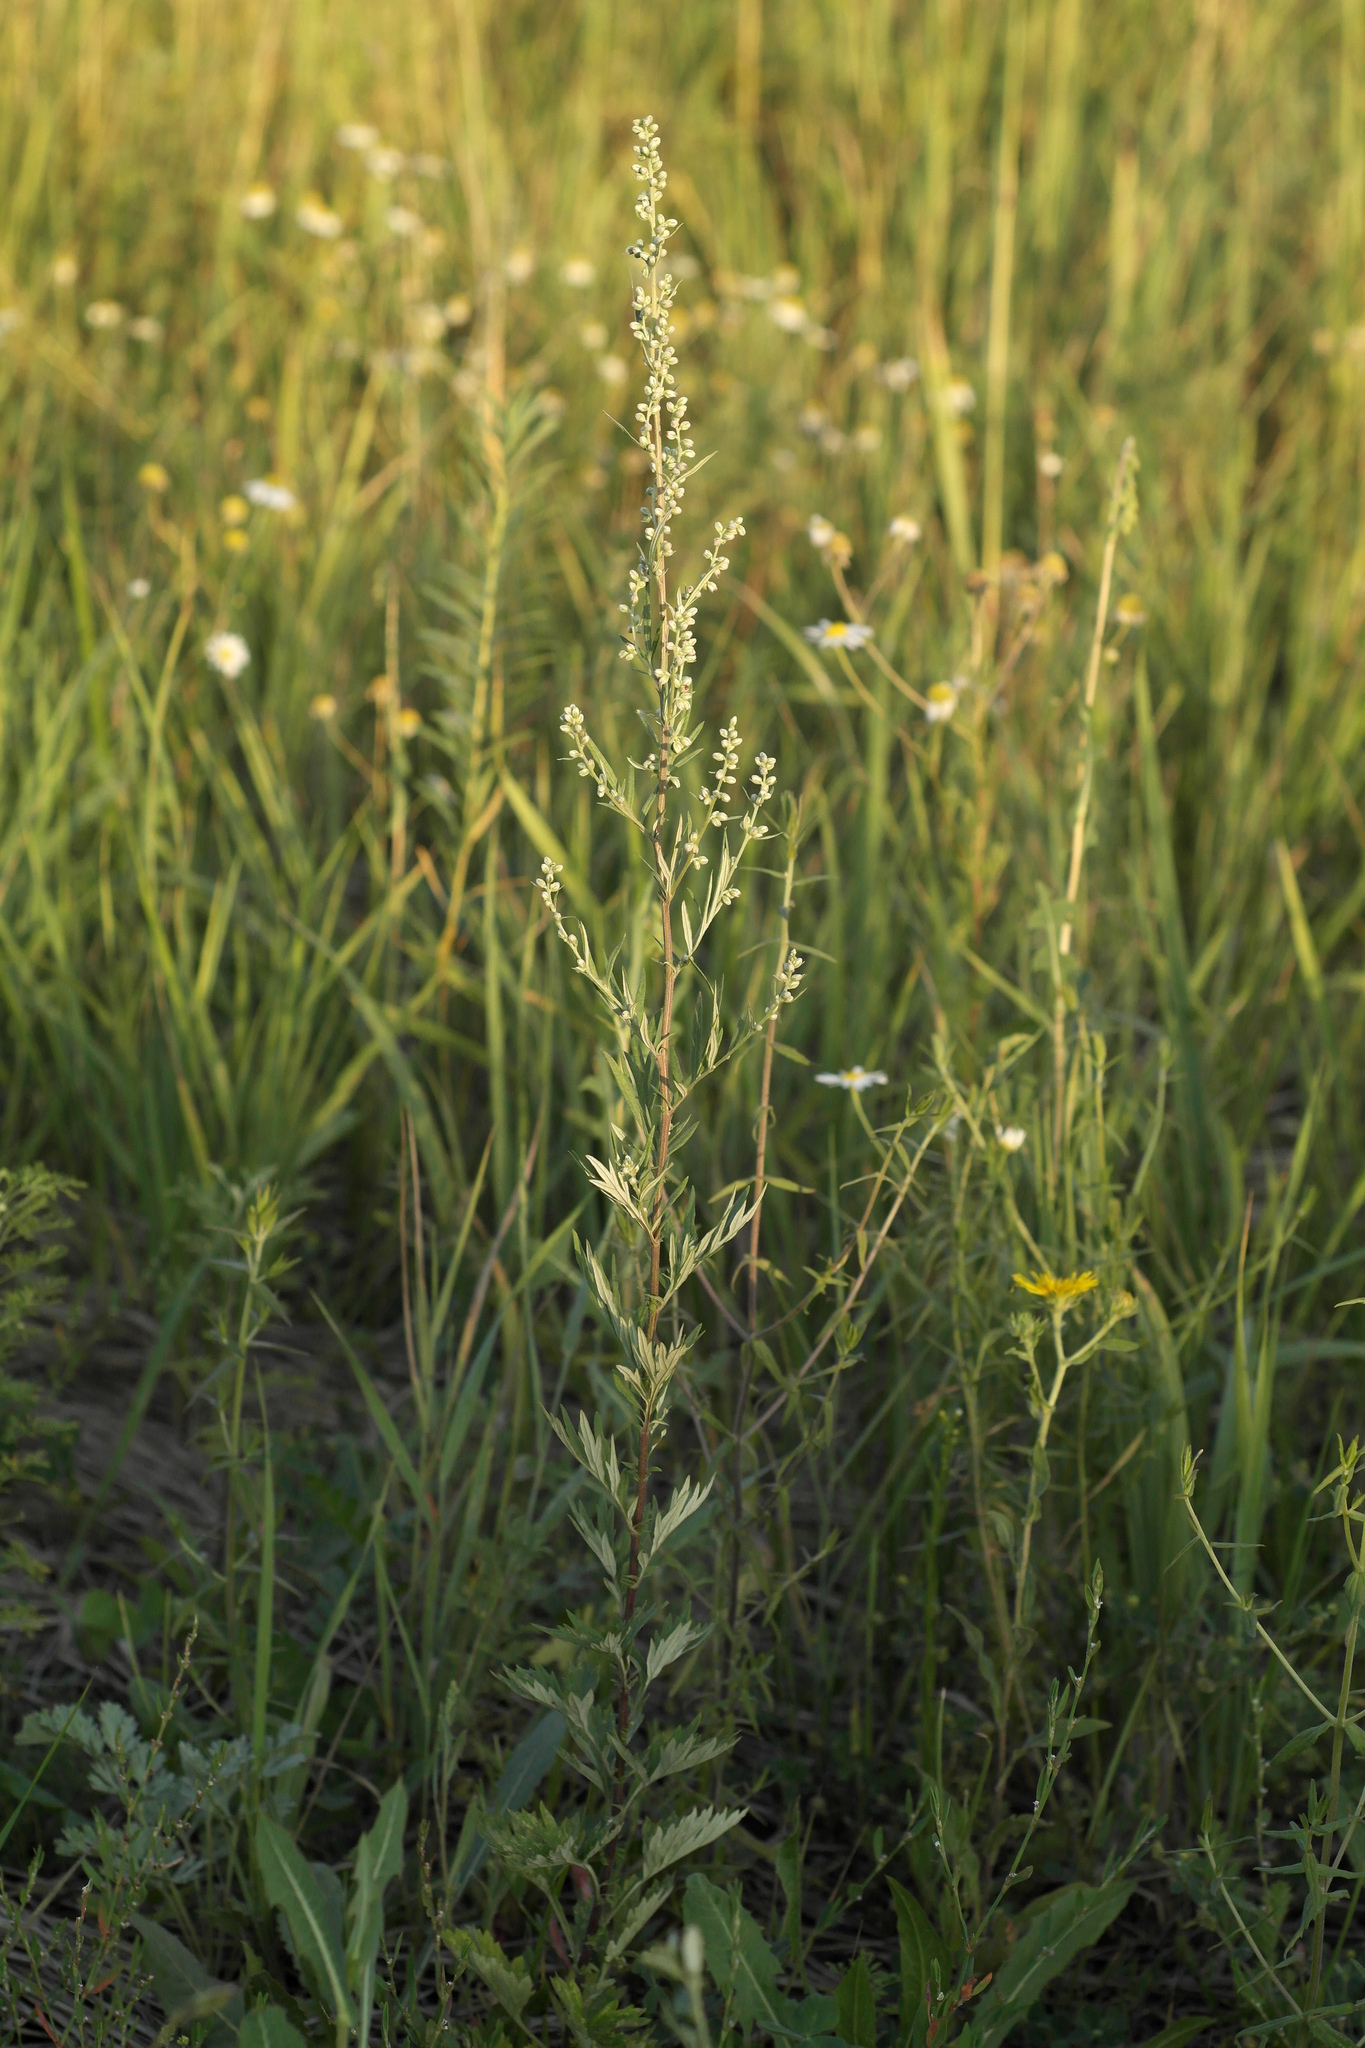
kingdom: Plantae
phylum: Tracheophyta
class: Magnoliopsida
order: Asterales
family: Asteraceae
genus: Artemisia
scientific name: Artemisia vulgaris
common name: Mugwort
